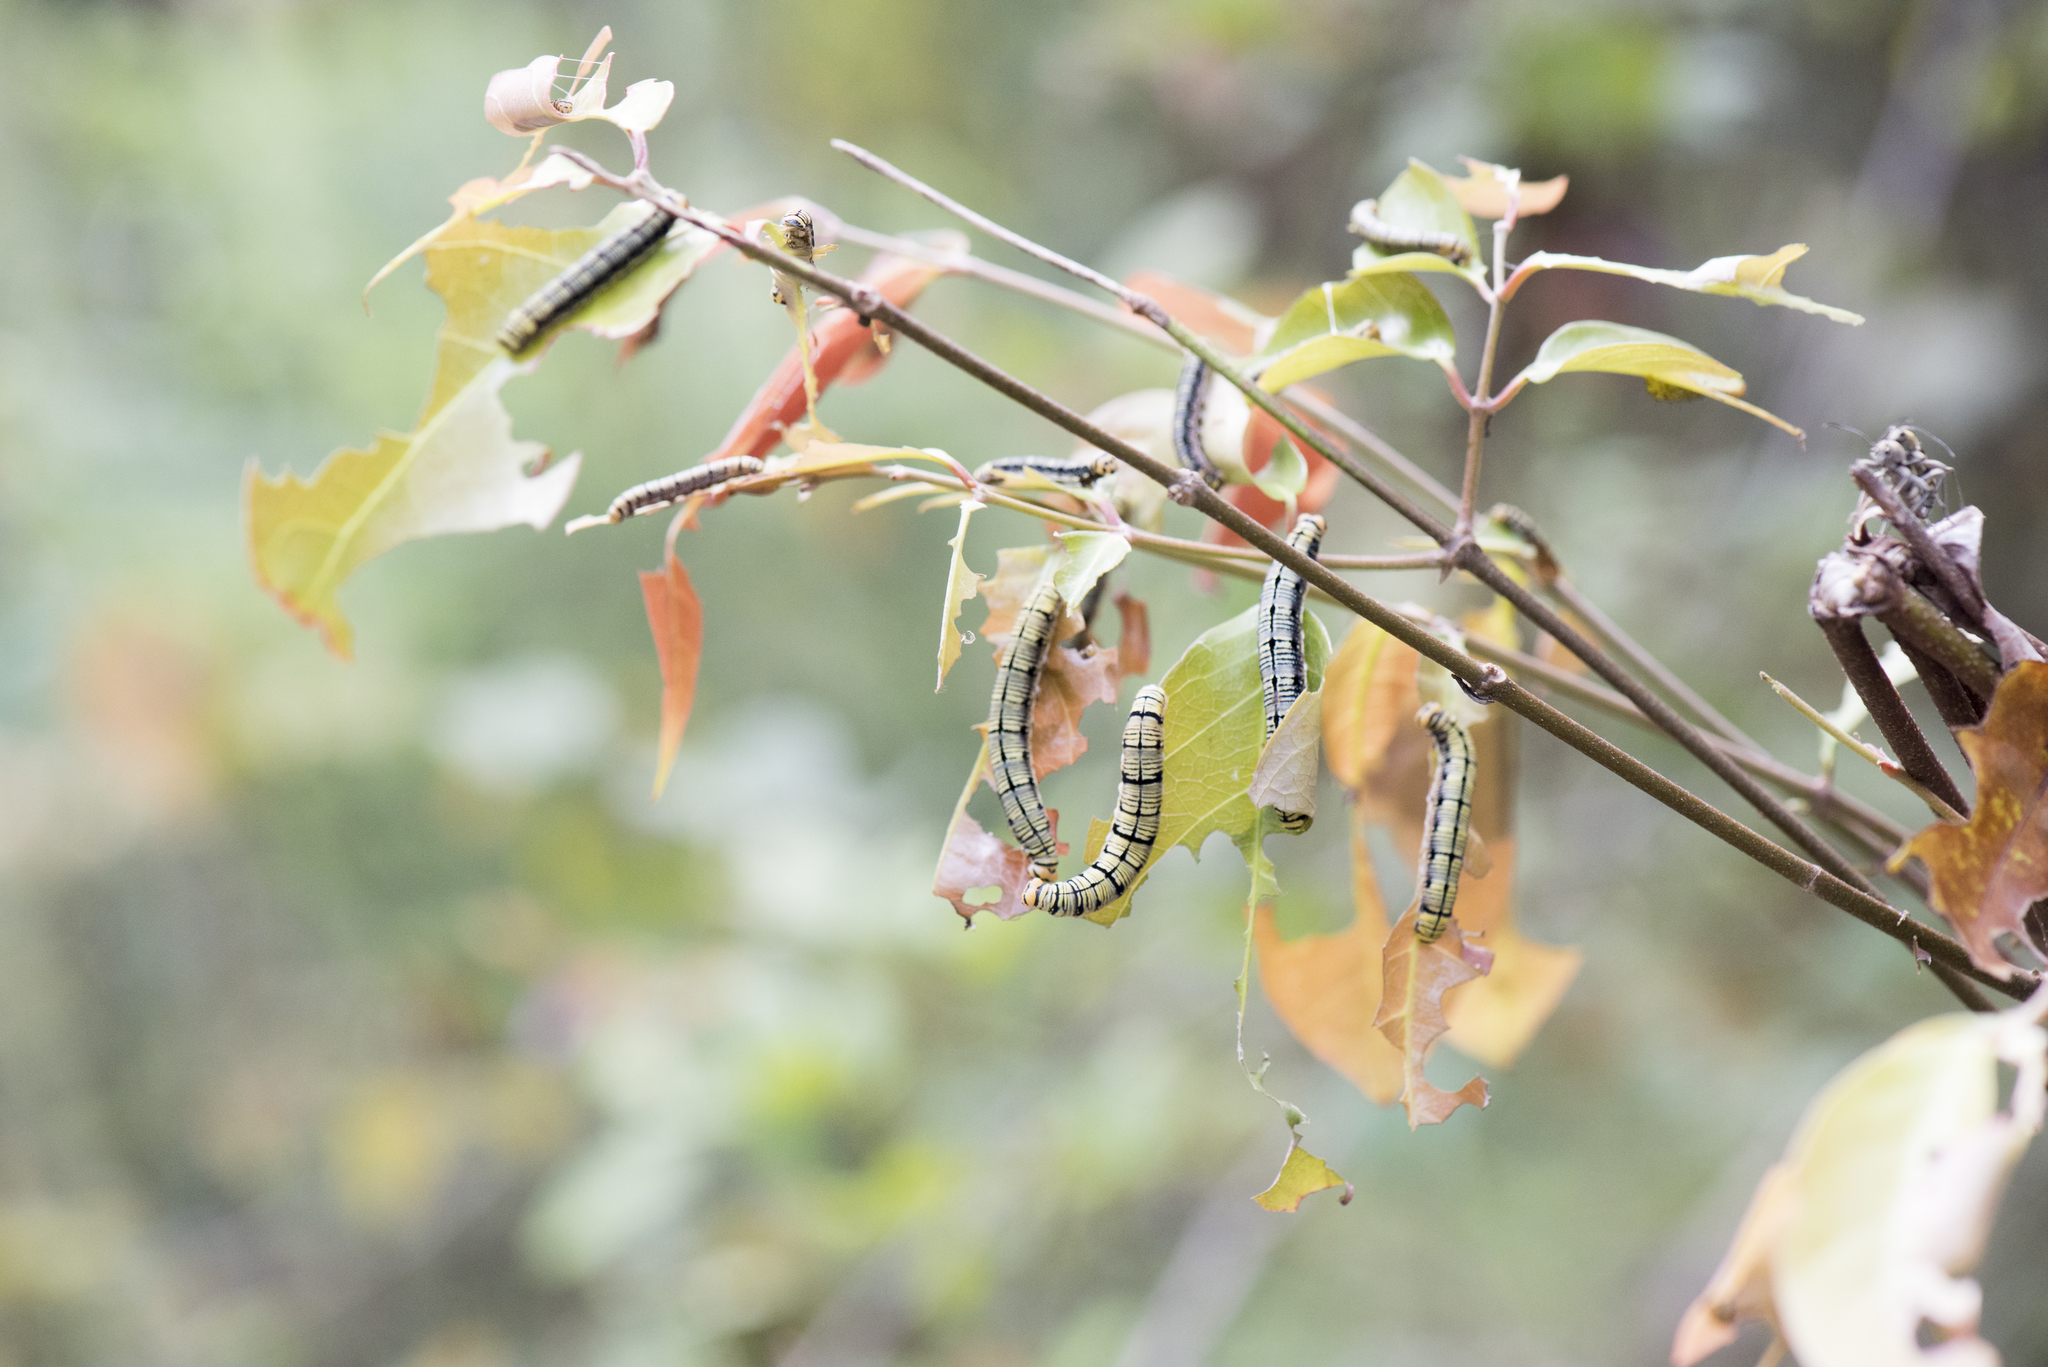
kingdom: Animalia
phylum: Arthropoda
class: Insecta
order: Lepidoptera
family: Hesperiidae
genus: Badamia
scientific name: Badamia exclamationis
